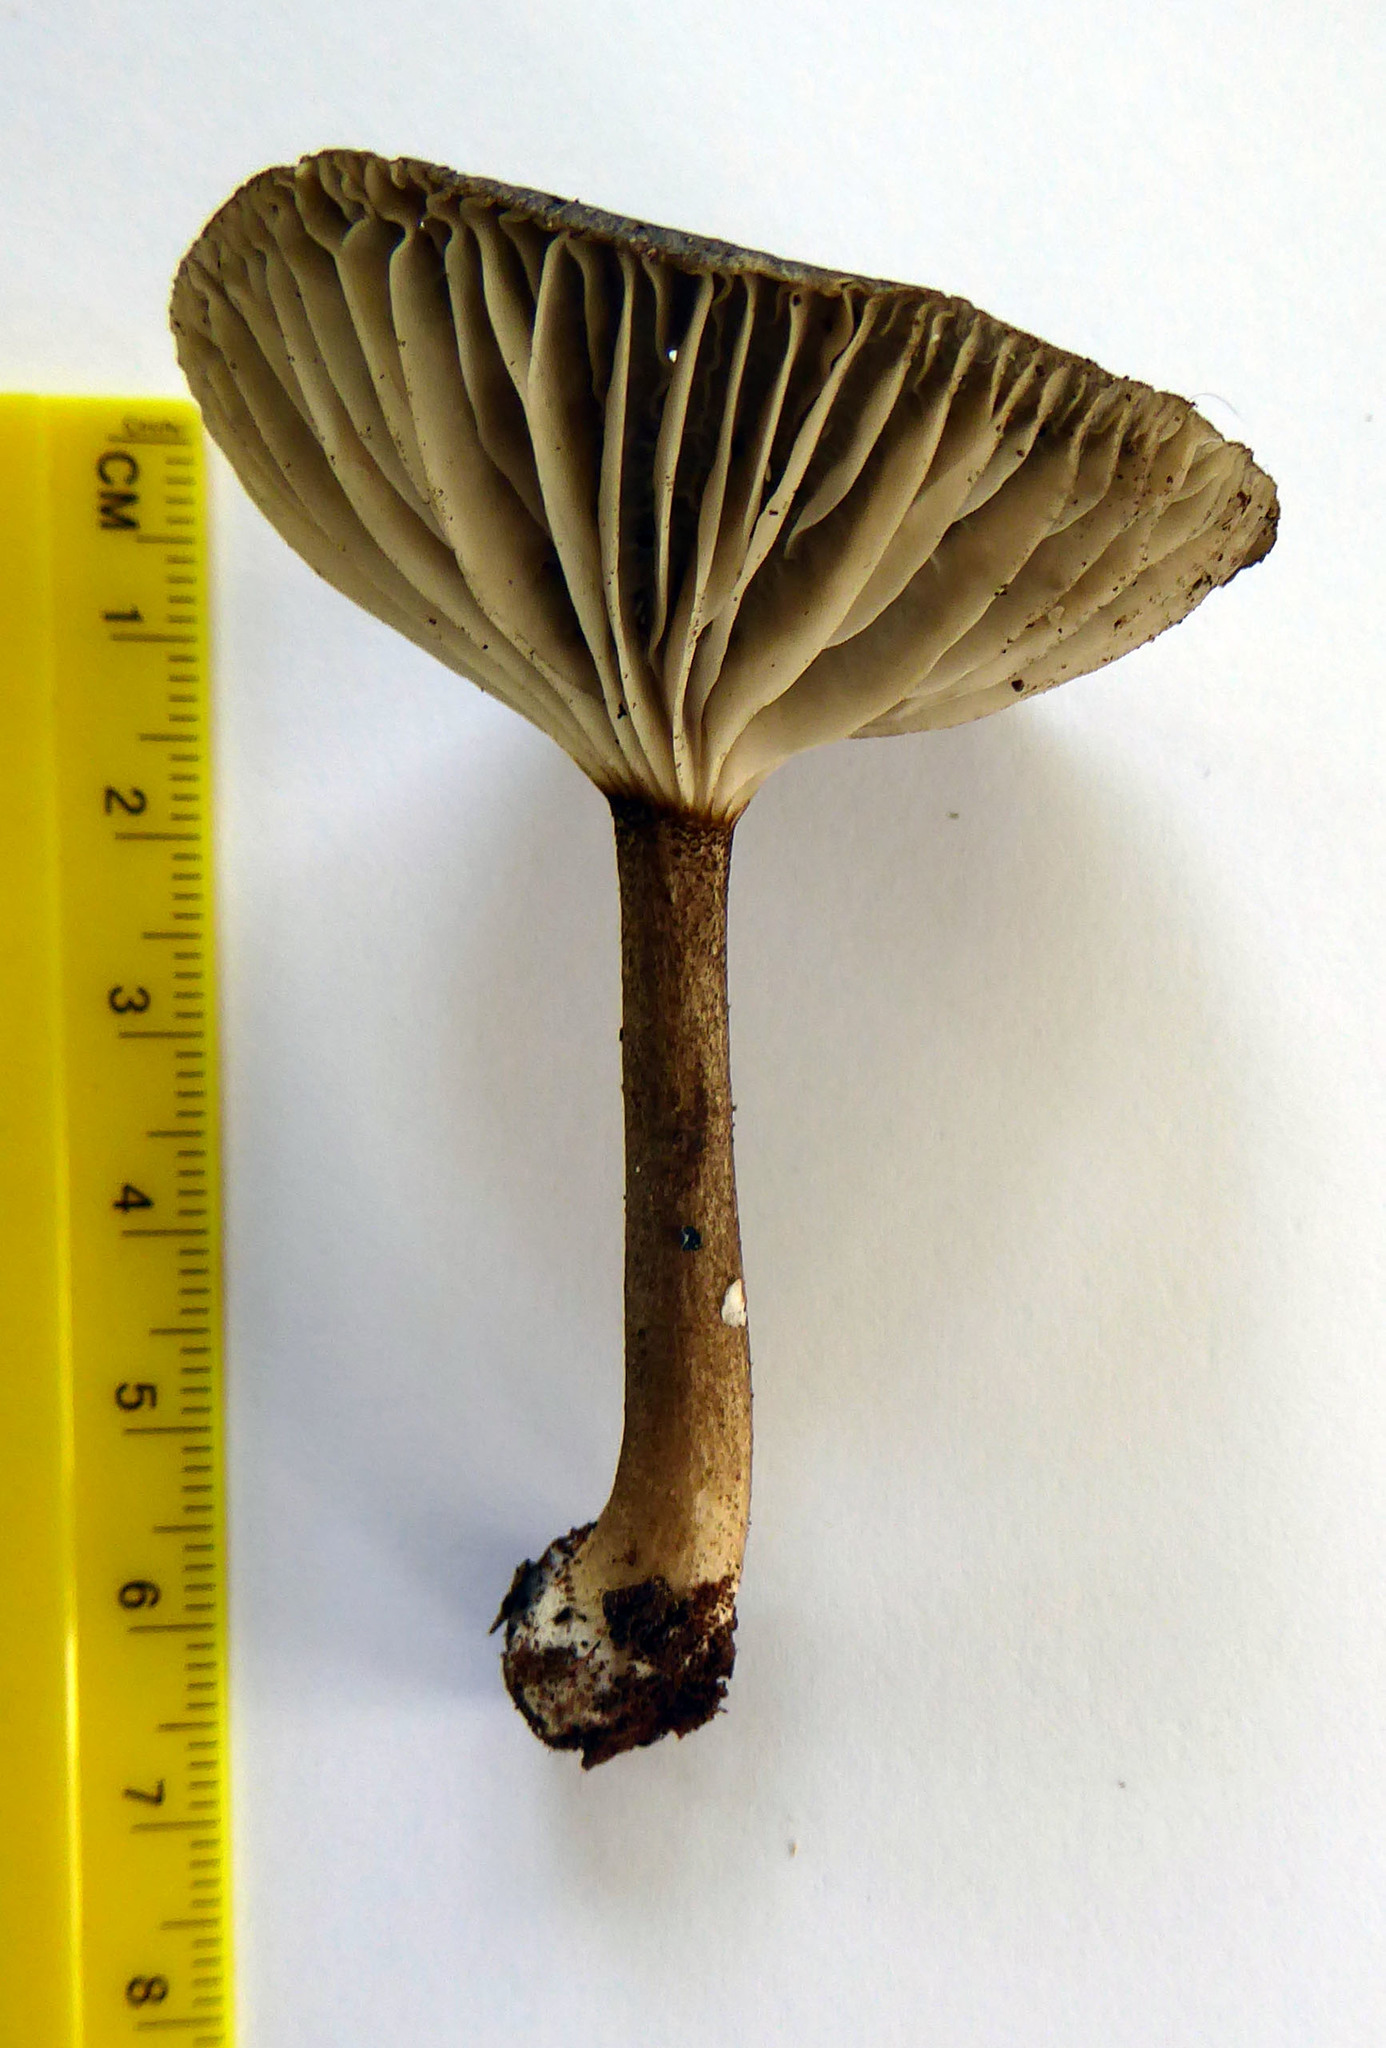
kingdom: Fungi
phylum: Basidiomycota
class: Agaricomycetes
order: Agaricales
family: Marasmiaceae
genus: Gerronema
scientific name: Gerronema
